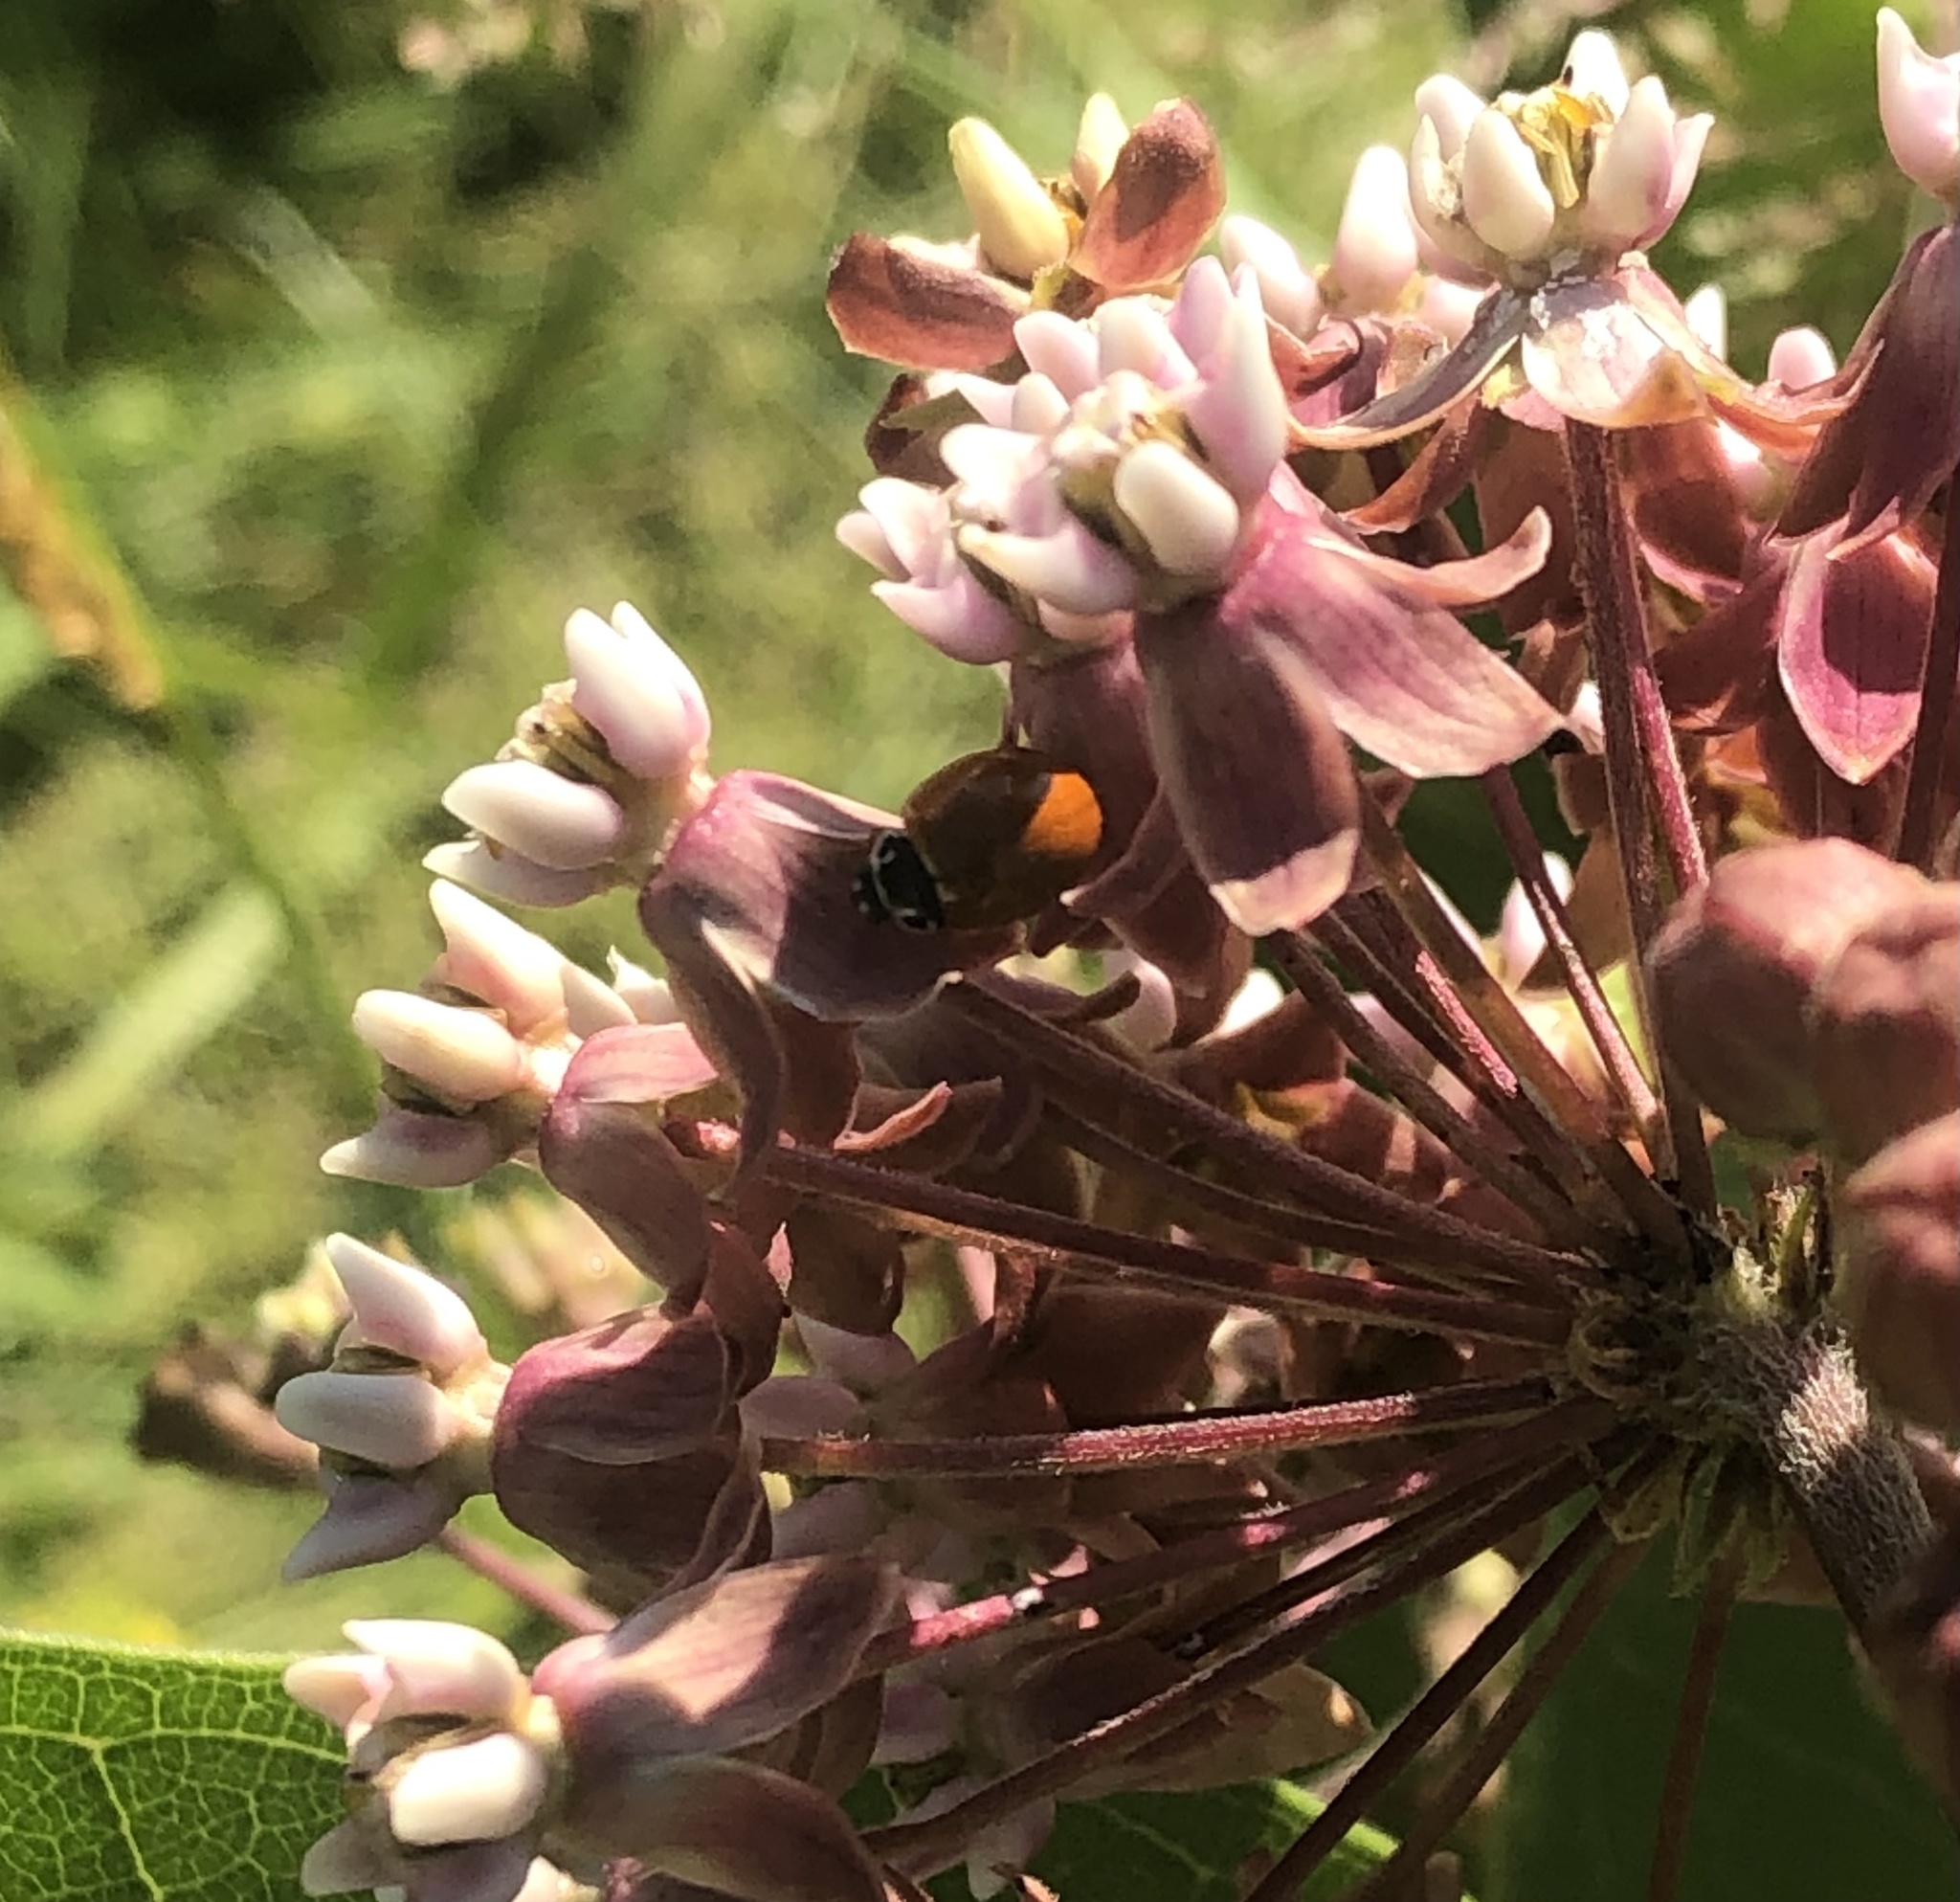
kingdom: Animalia
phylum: Arthropoda
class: Insecta
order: Coleoptera
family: Coccinellidae
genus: Cycloneda
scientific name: Cycloneda munda
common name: Polished lady beetle
